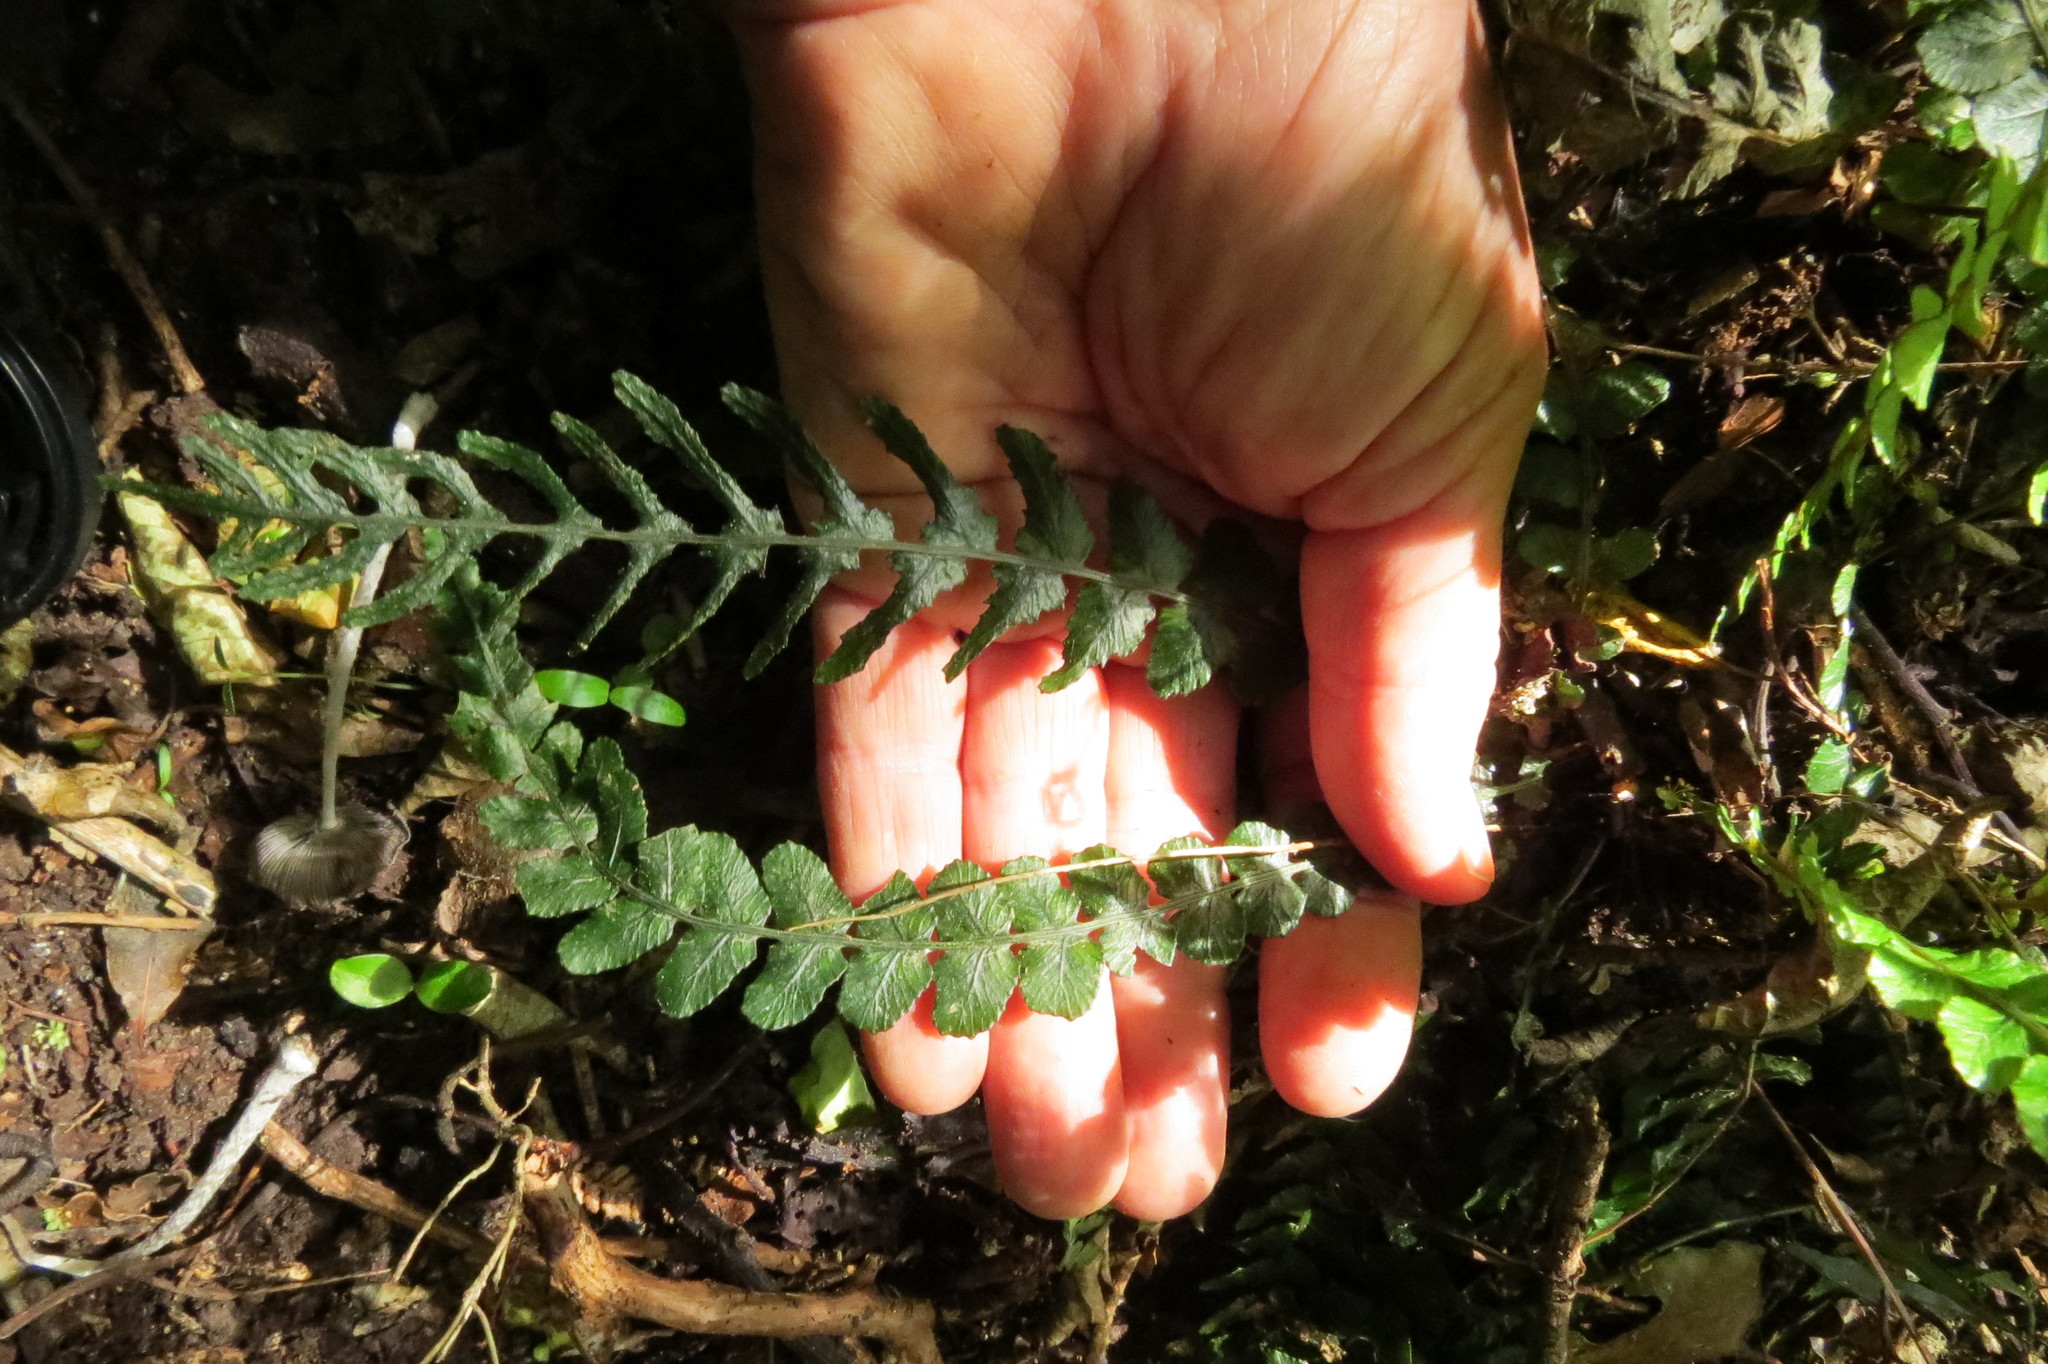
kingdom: Plantae
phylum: Tracheophyta
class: Polypodiopsida
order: Polypodiales
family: Blechnaceae
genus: Austroblechnum
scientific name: Austroblechnum membranaceum
